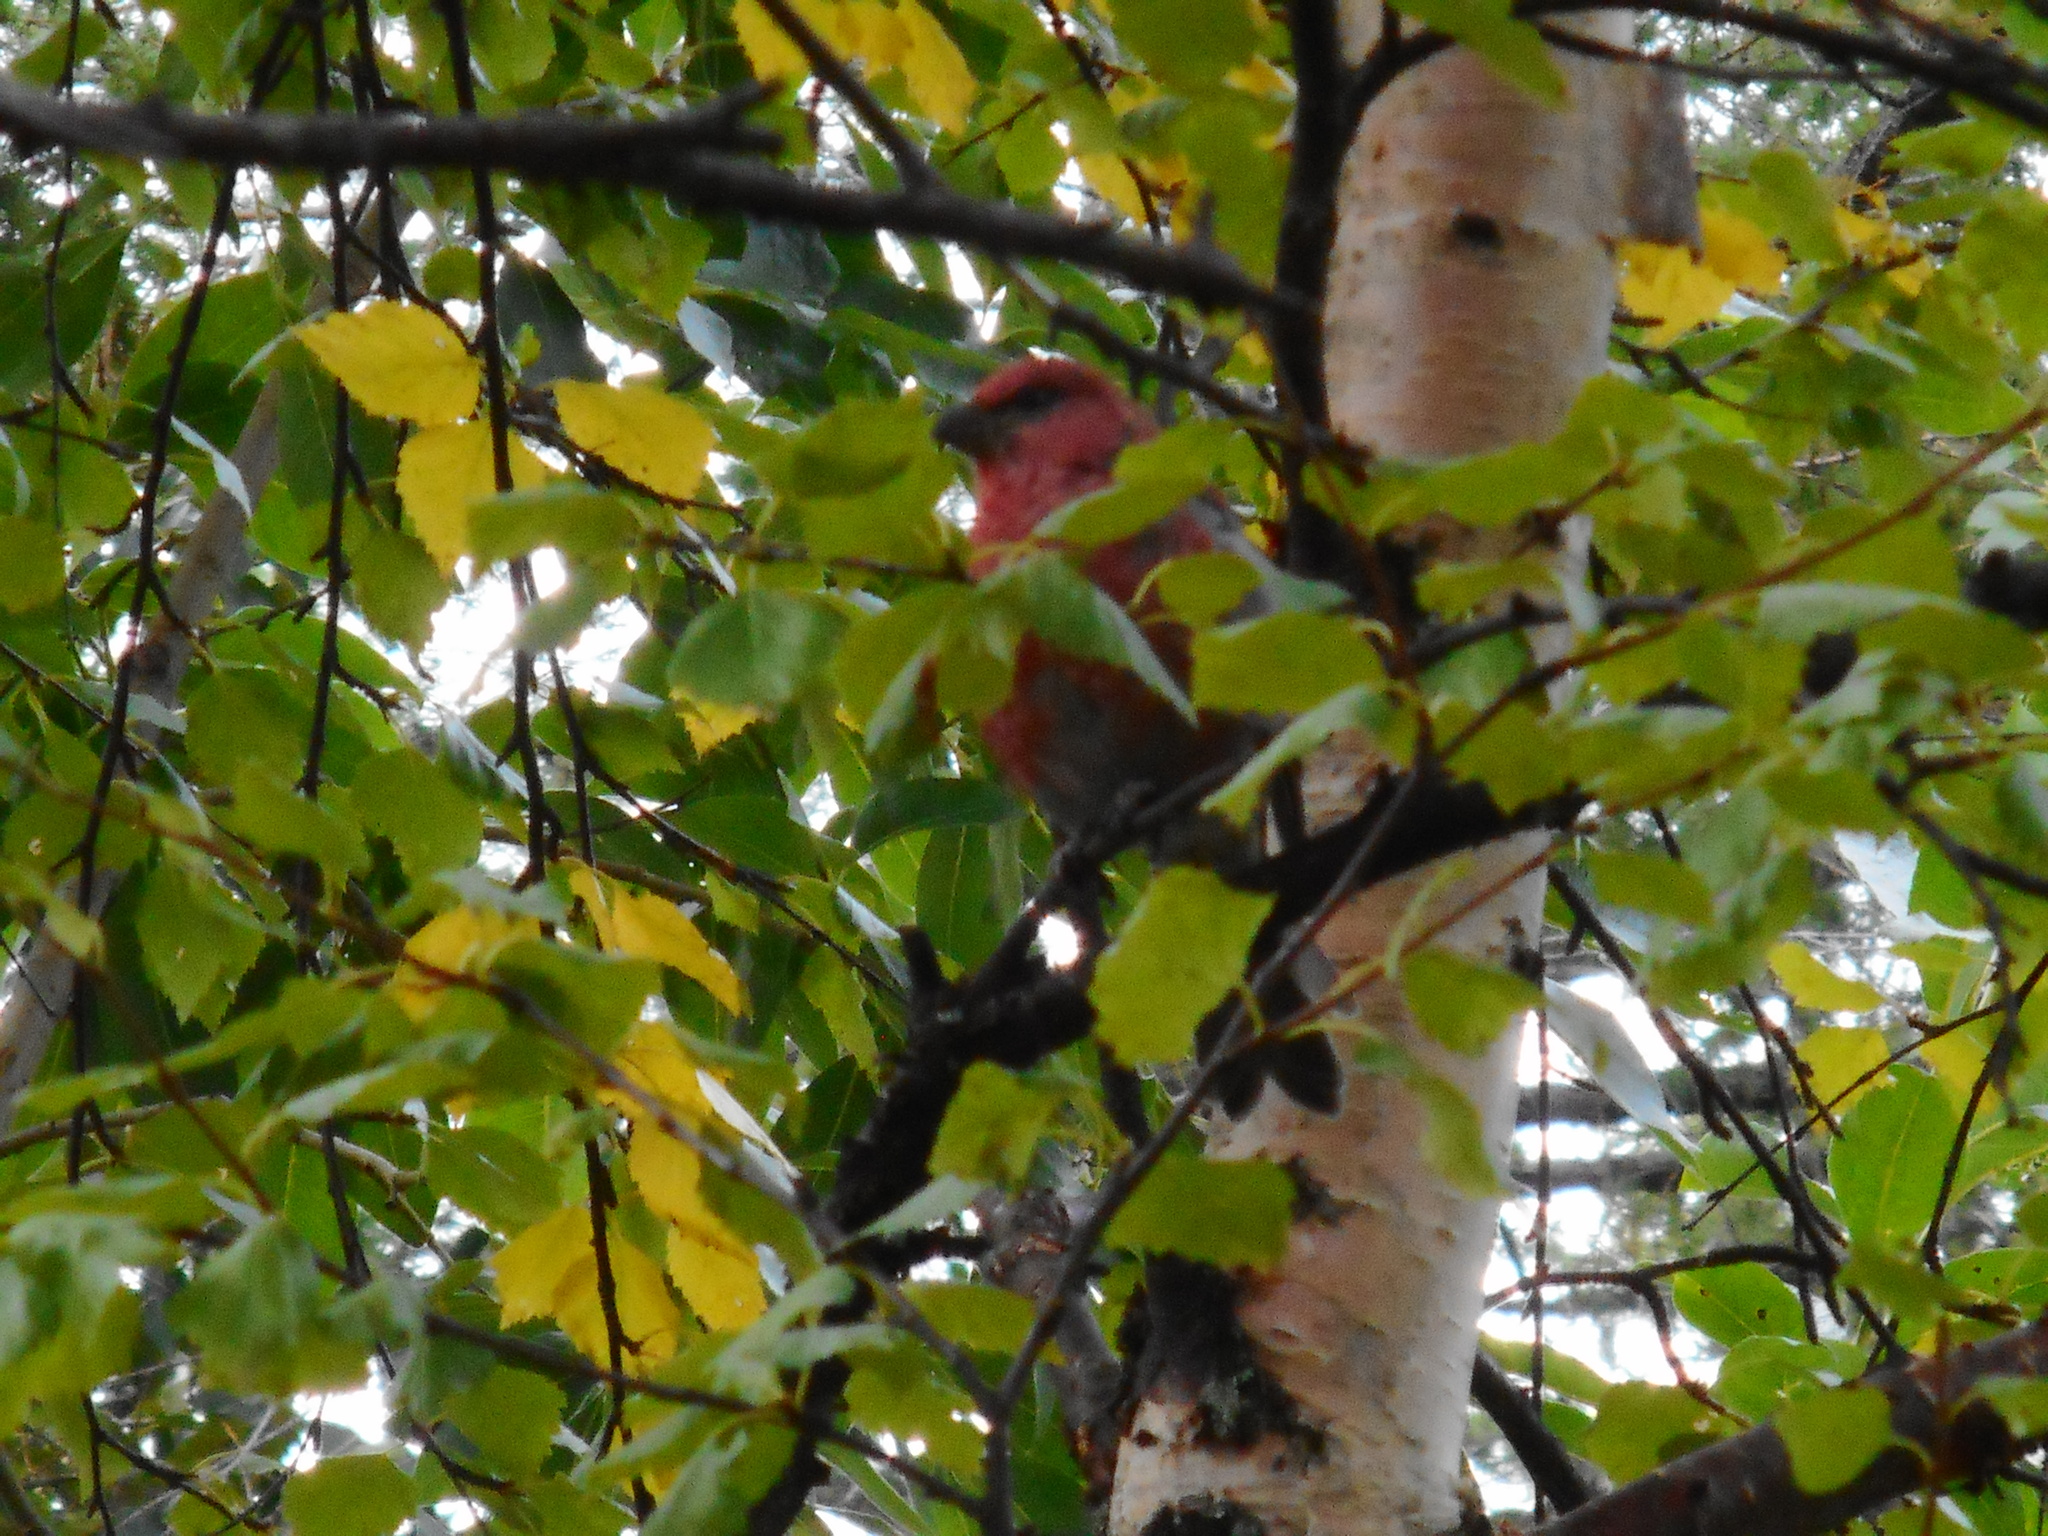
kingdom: Animalia
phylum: Chordata
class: Aves
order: Passeriformes
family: Fringillidae
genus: Pinicola
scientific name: Pinicola enucleator
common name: Pine grosbeak
